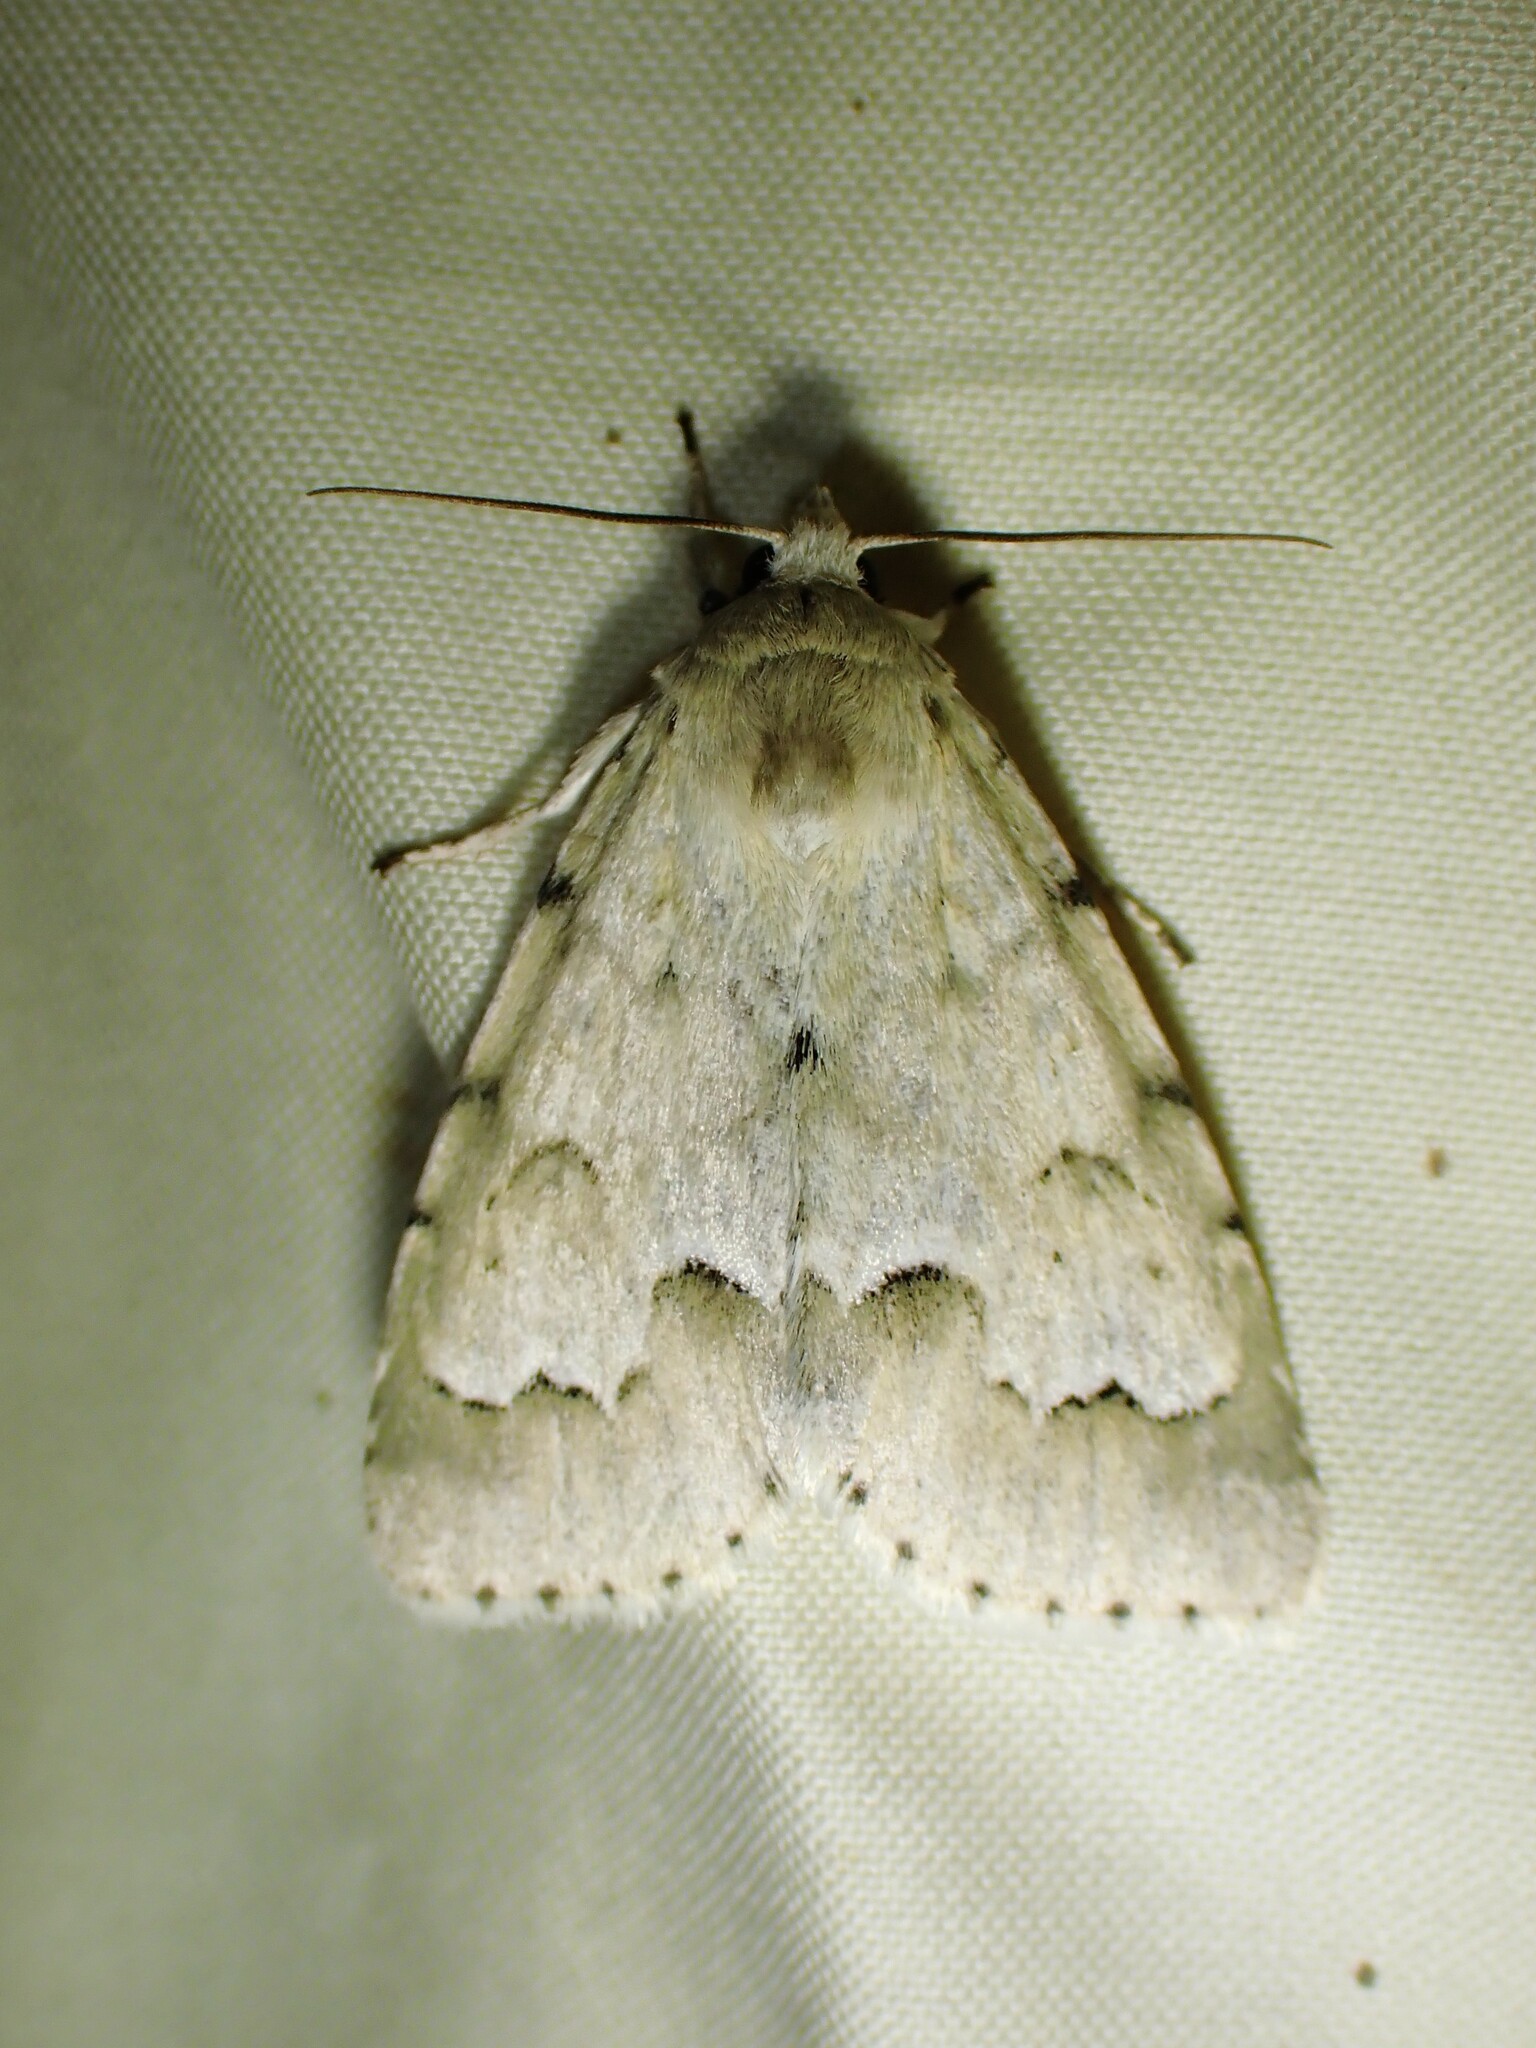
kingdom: Animalia
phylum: Arthropoda
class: Insecta
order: Lepidoptera
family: Noctuidae
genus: Acronicta
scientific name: Acronicta innotata
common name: Unmarked dagger
